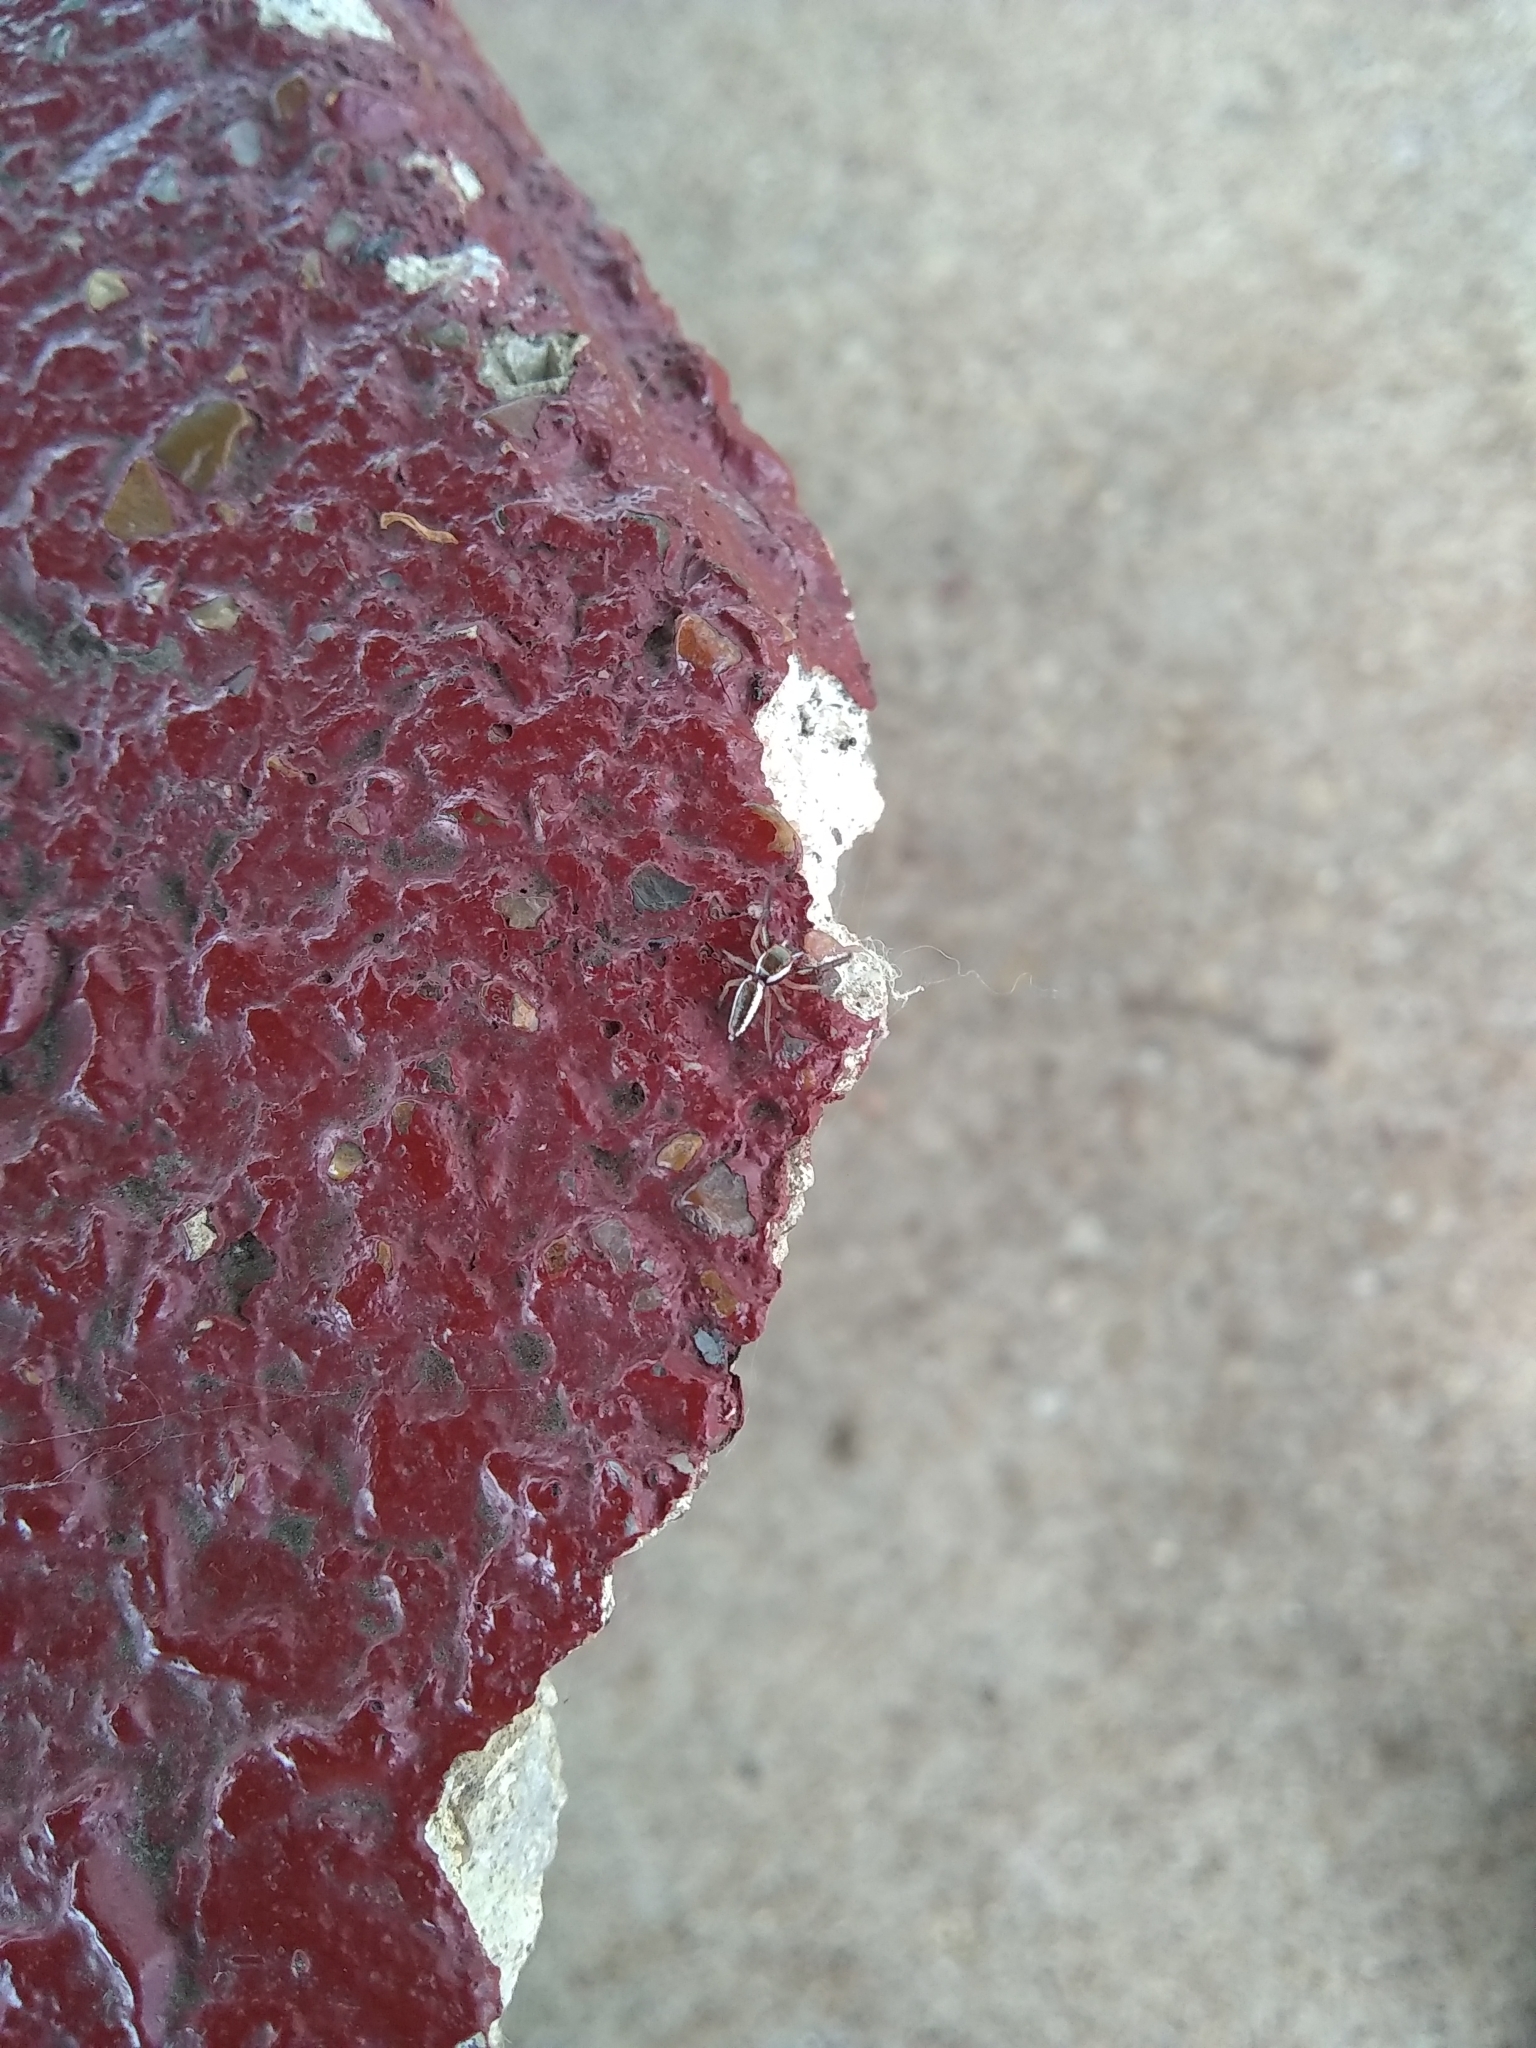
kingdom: Animalia
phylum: Arthropoda
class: Arachnida
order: Araneae
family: Salticidae
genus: Hentzia
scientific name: Hentzia palmarum
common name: Common hentz jumping spider
